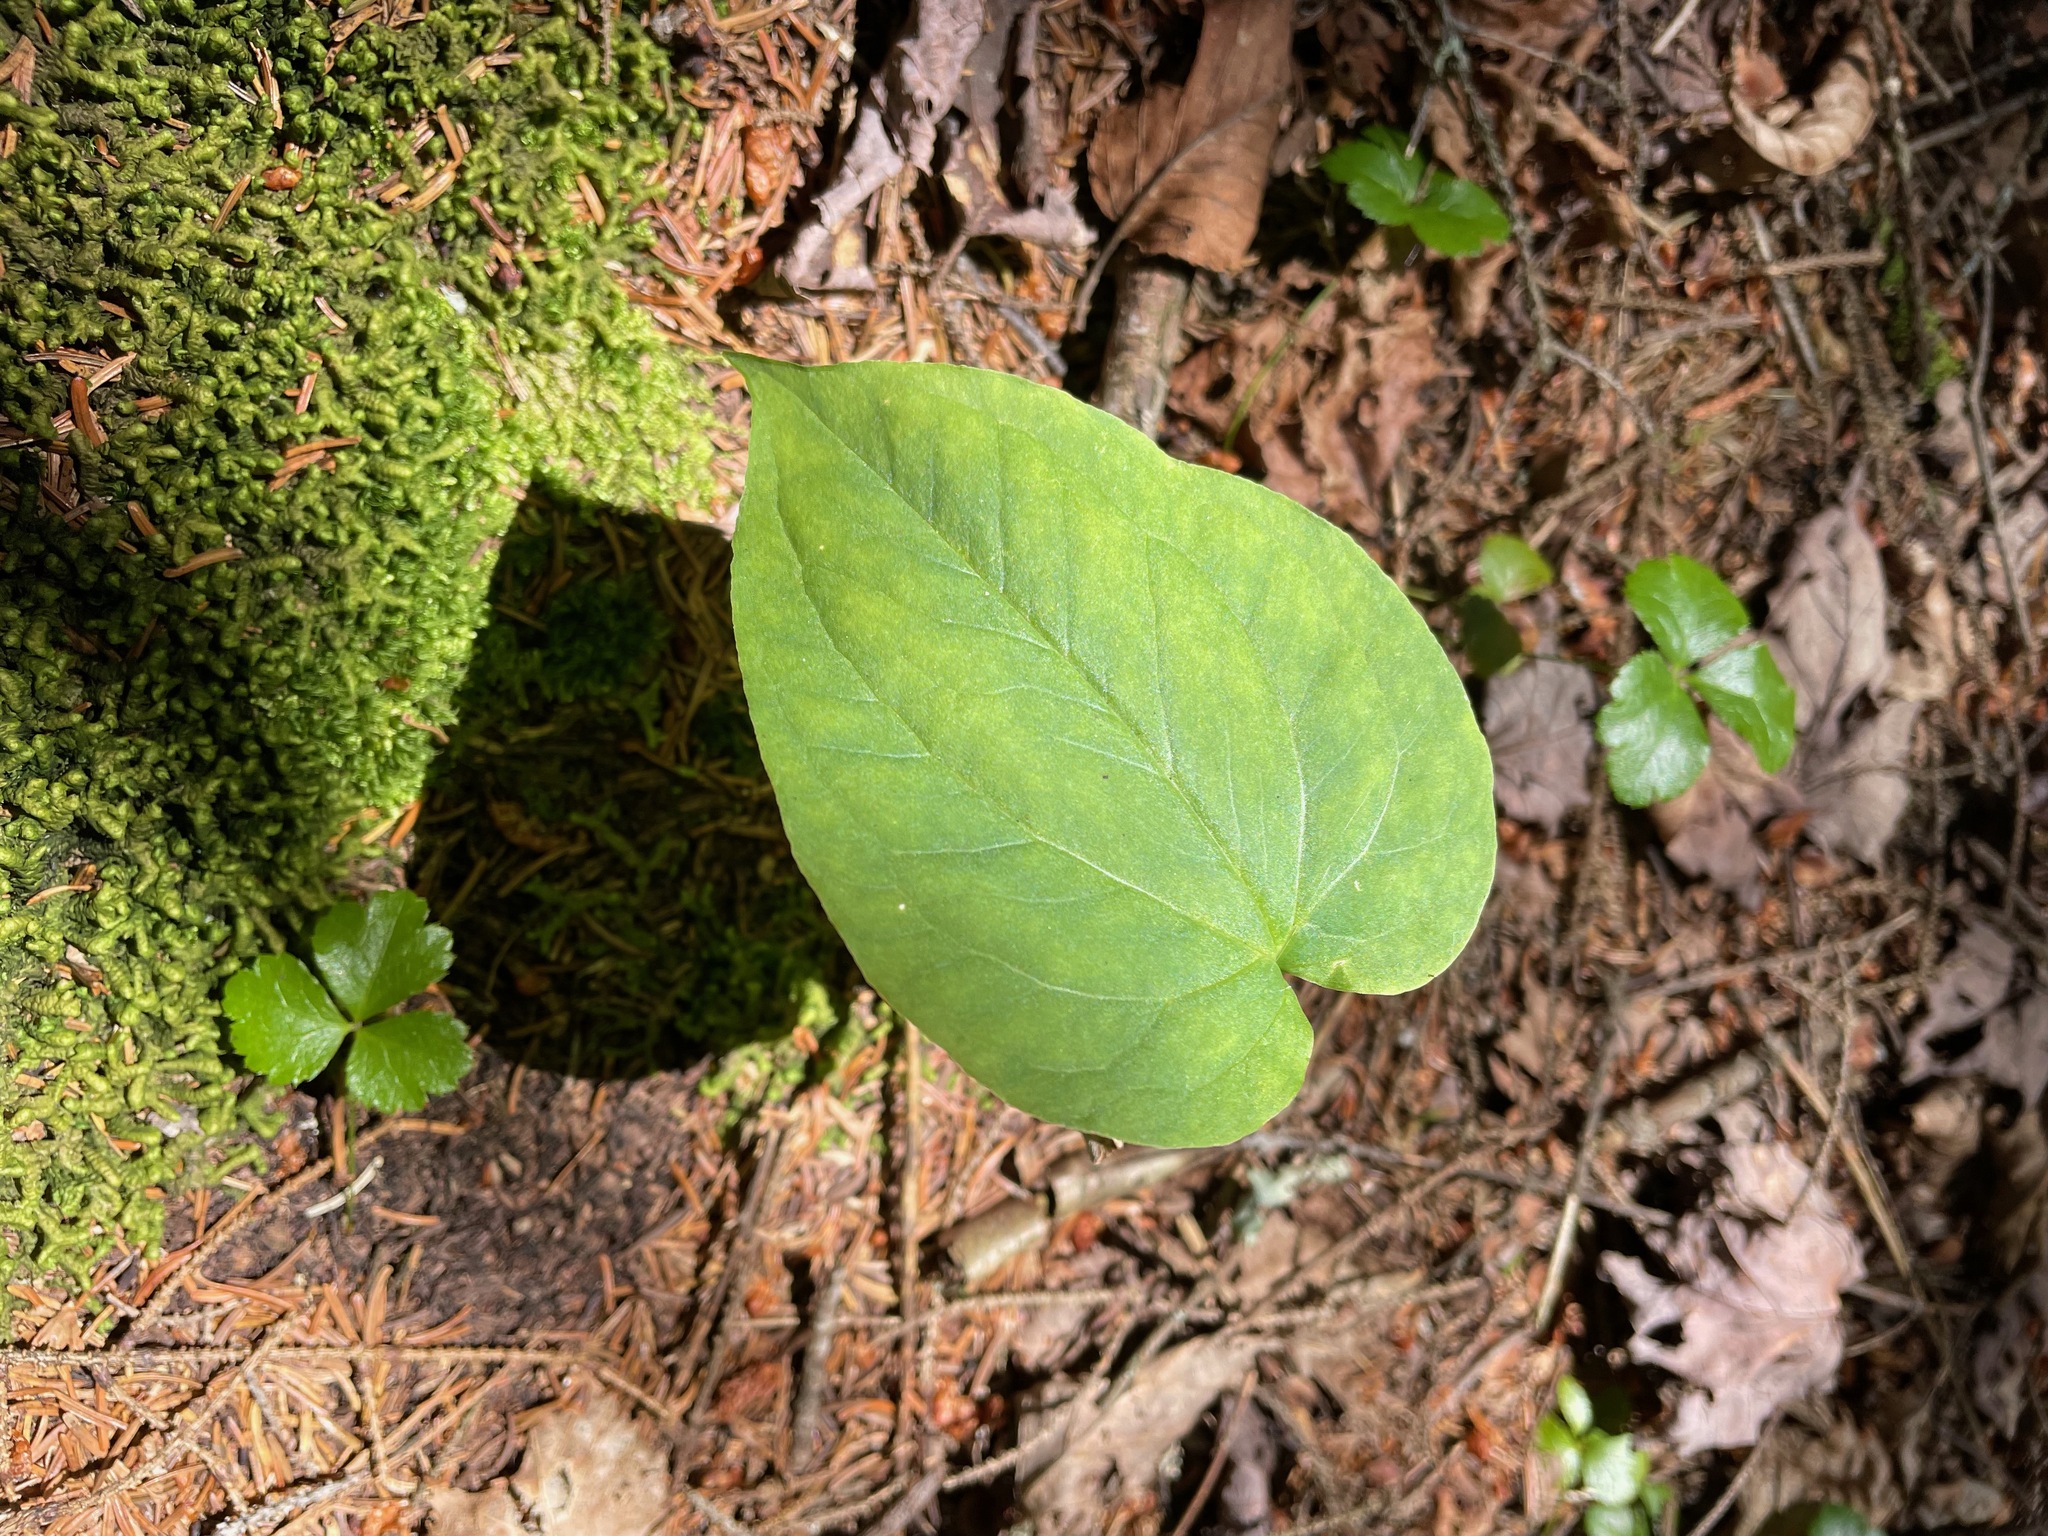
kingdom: Plantae
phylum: Tracheophyta
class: Liliopsida
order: Liliales
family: Melanthiaceae
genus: Trillium
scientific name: Trillium undulatum
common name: Paint trillium
